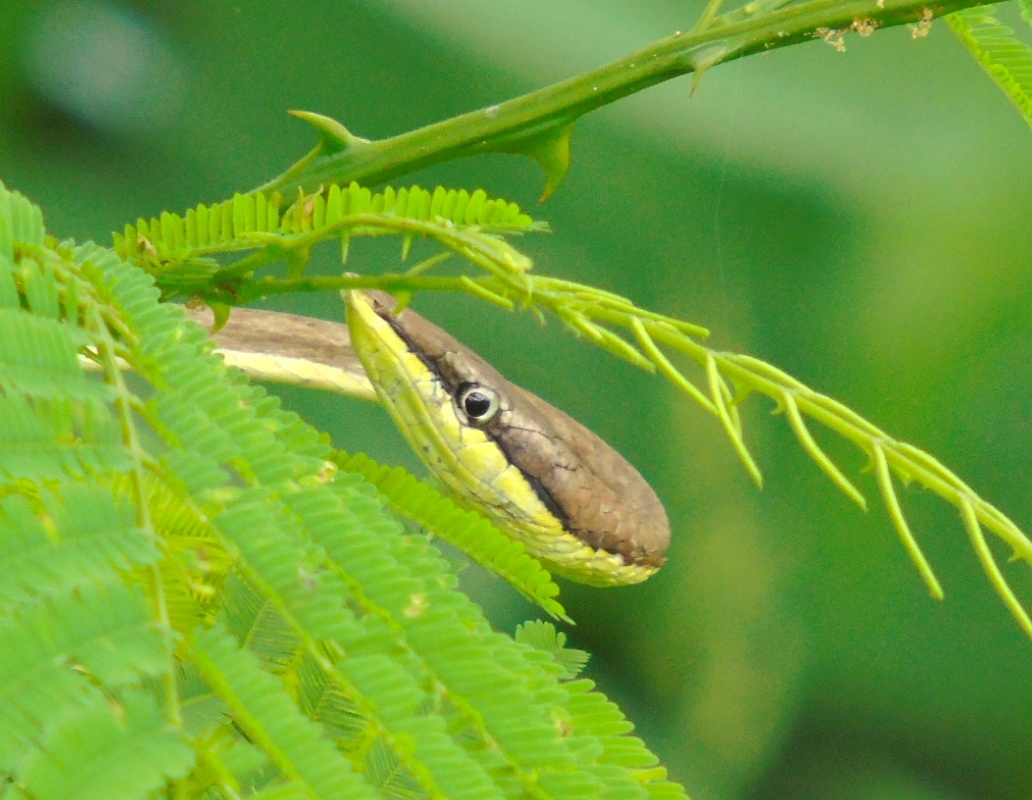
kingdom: Animalia
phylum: Chordata
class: Squamata
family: Colubridae
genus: Oxybelis
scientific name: Oxybelis microphthalmus
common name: Thrornscrub vine snake
